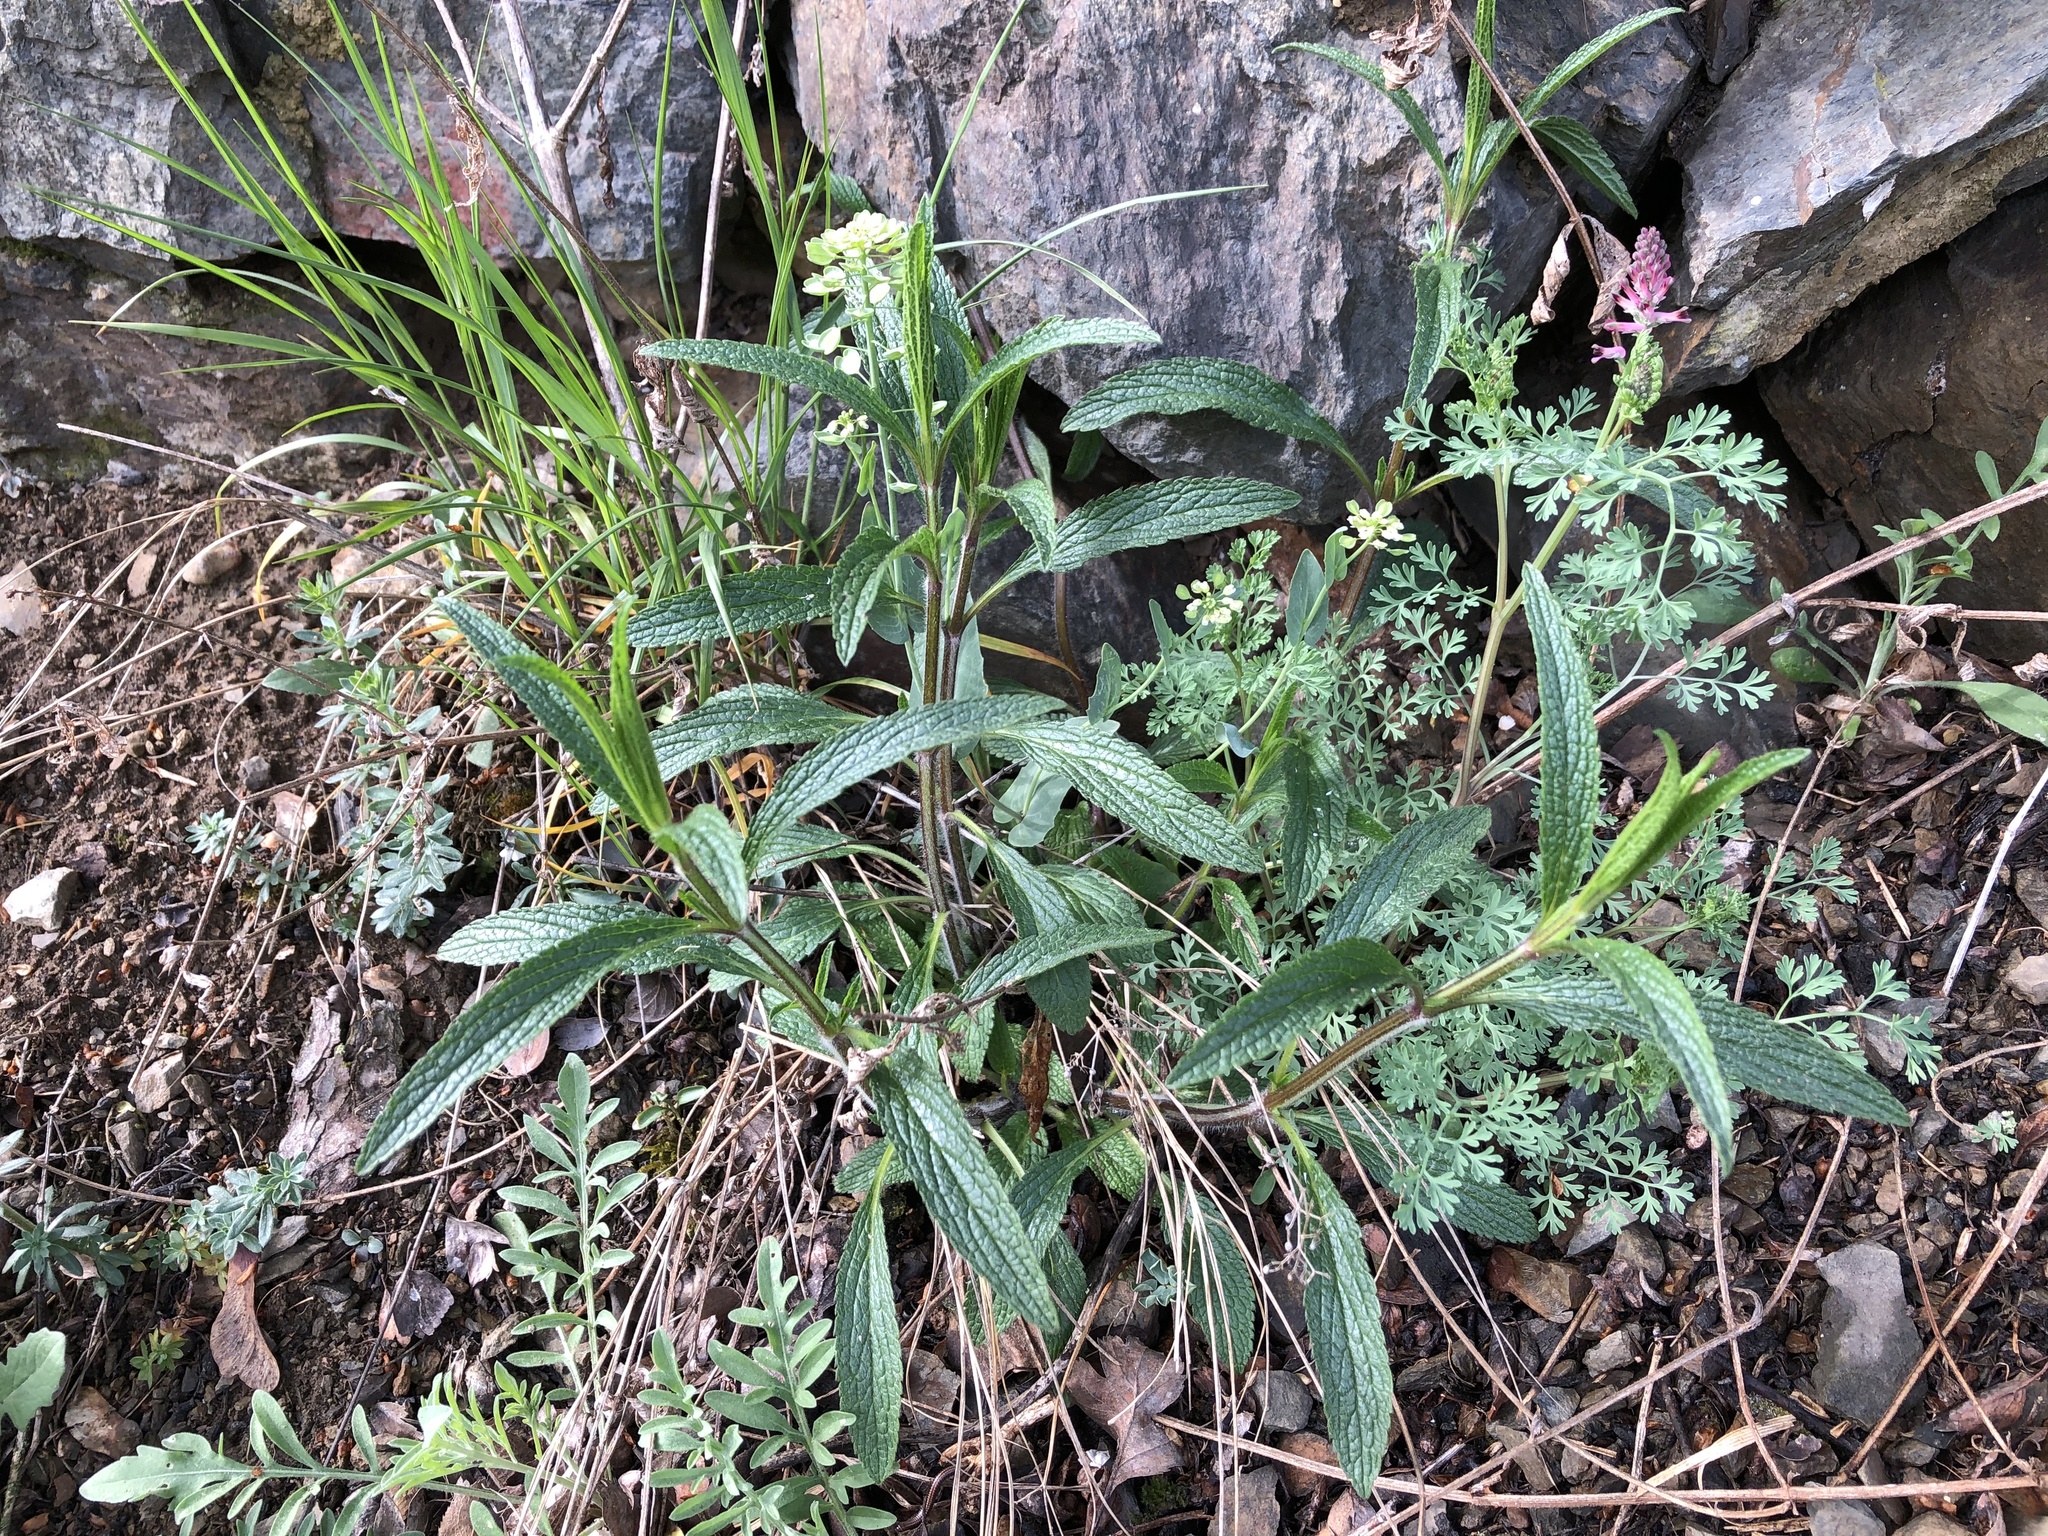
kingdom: Plantae
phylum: Tracheophyta
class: Magnoliopsida
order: Lamiales
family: Lamiaceae
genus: Stachys
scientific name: Stachys recta
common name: Perennial yellow-woundwort
